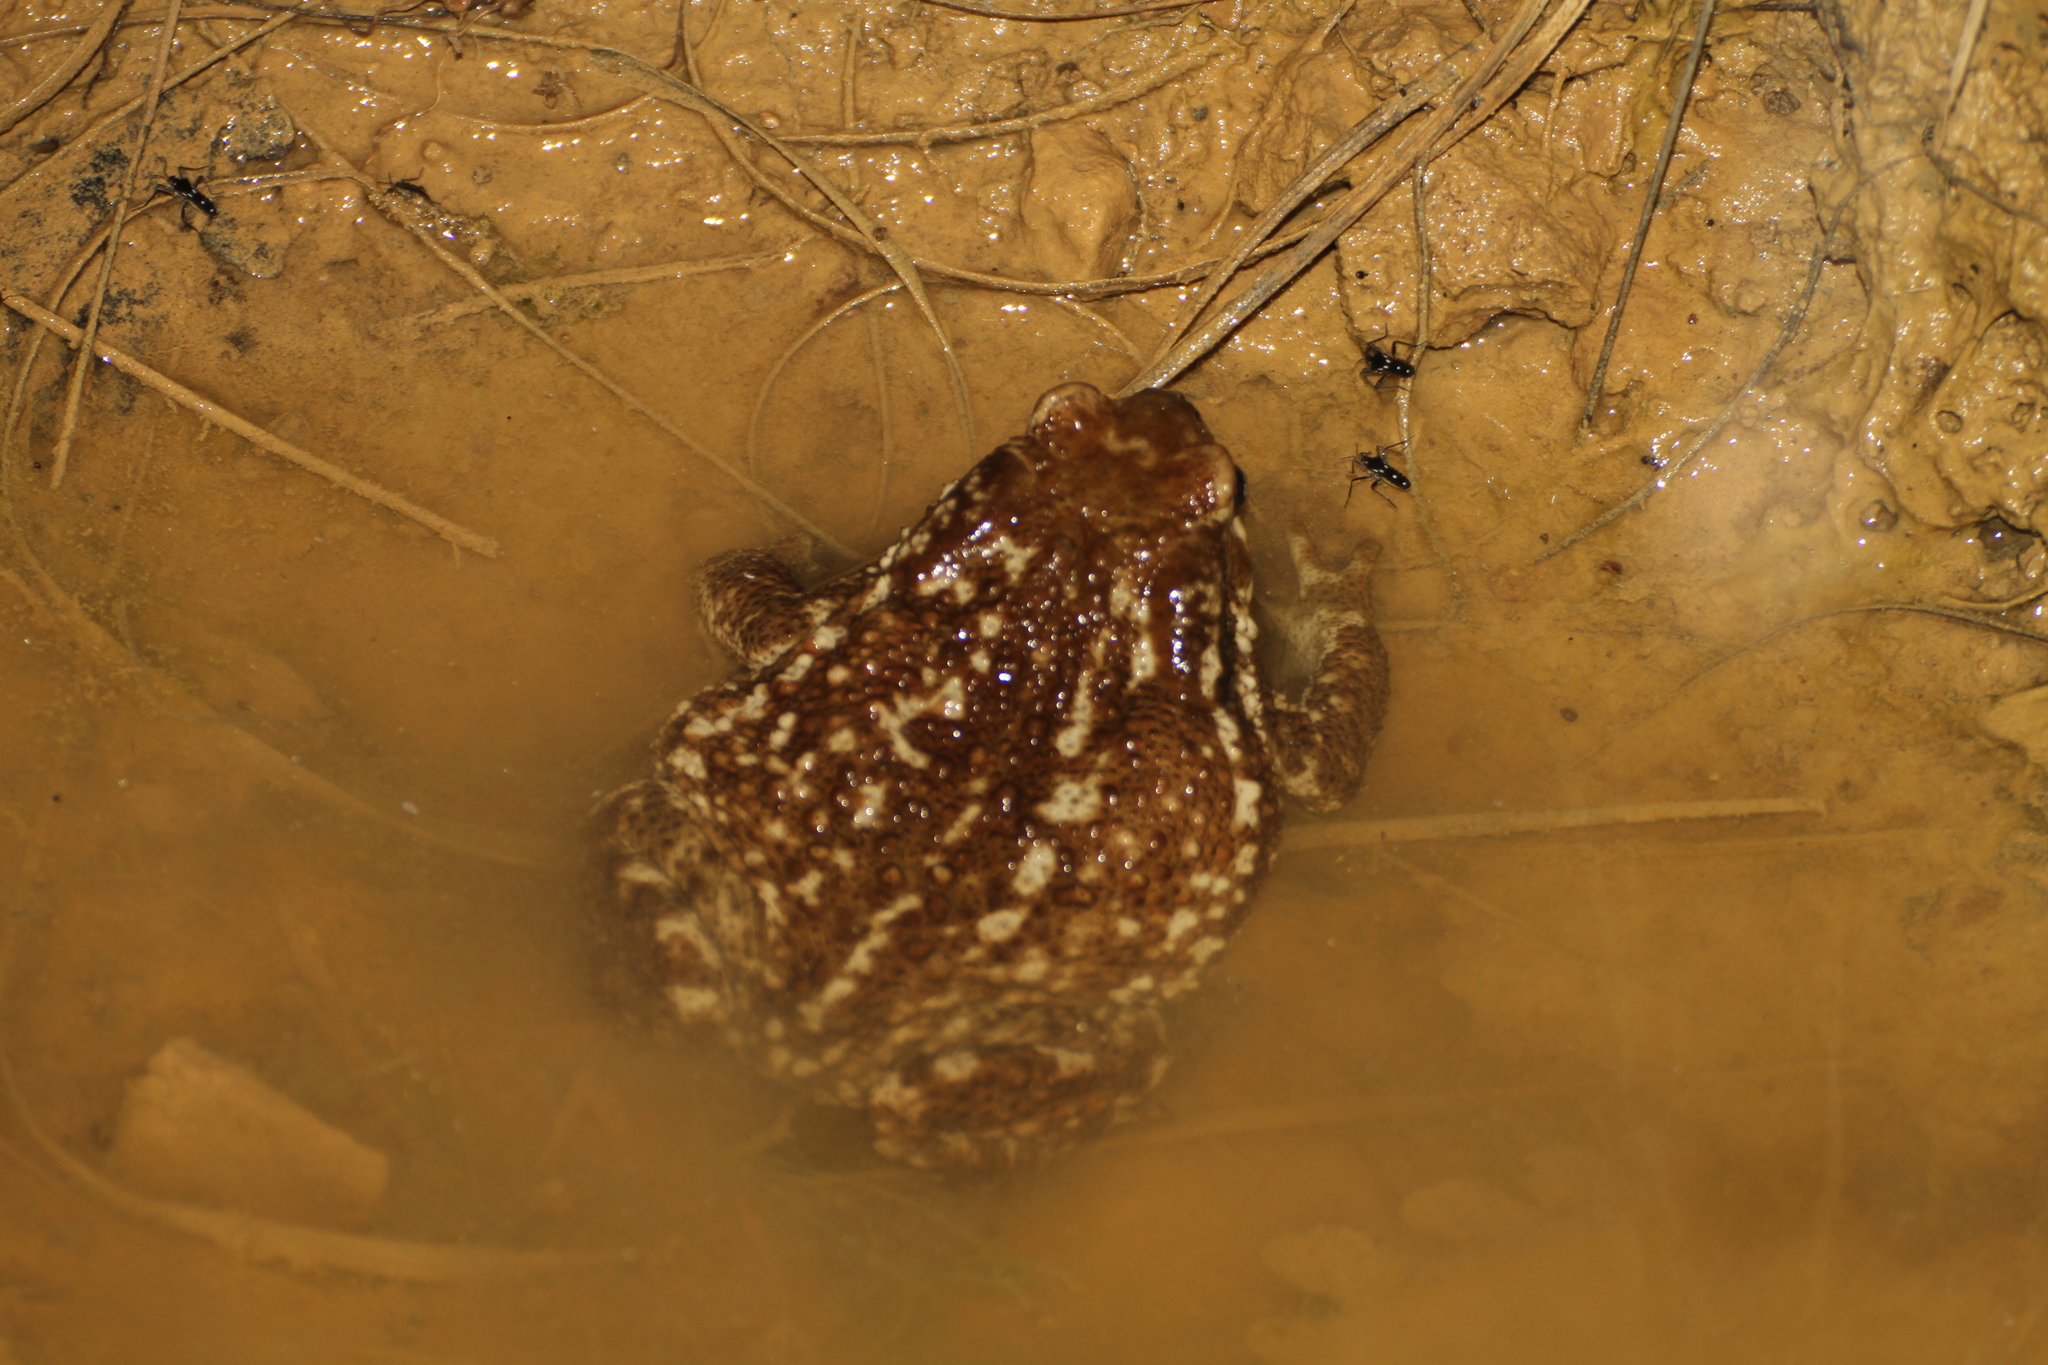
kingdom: Animalia
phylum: Chordata
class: Amphibia
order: Anura
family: Bufonidae
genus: Bufo
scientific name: Bufo spinosus
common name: Western common toad
